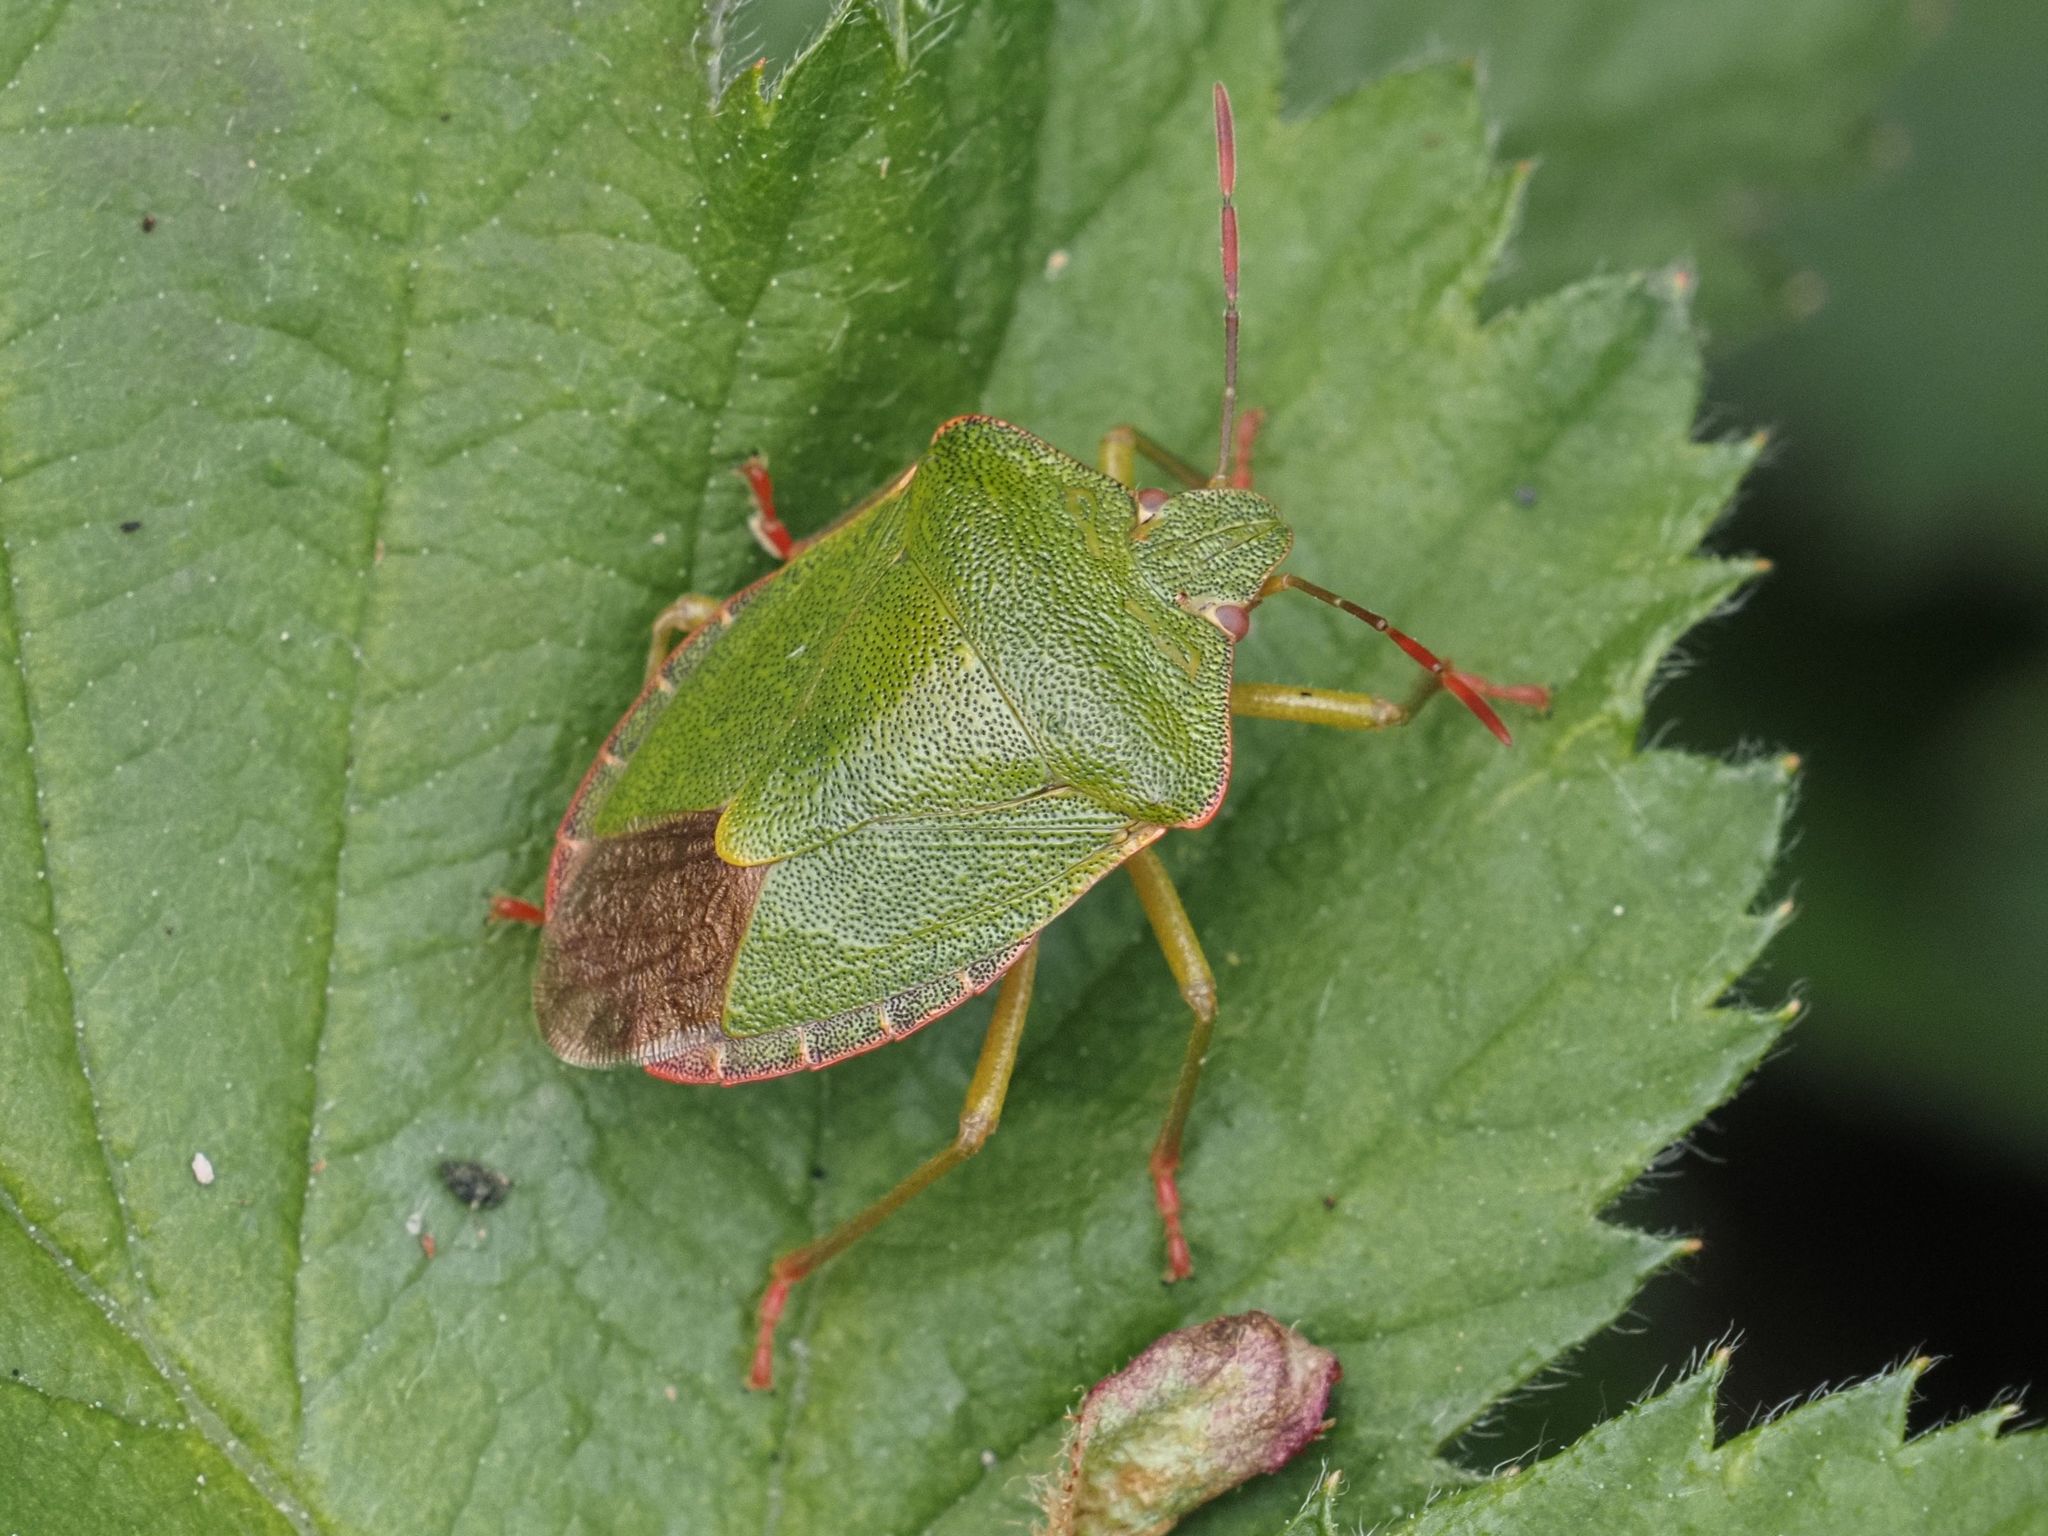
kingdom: Animalia
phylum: Arthropoda
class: Insecta
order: Hemiptera
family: Pentatomidae
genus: Palomena
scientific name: Palomena prasina
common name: Green shieldbug
